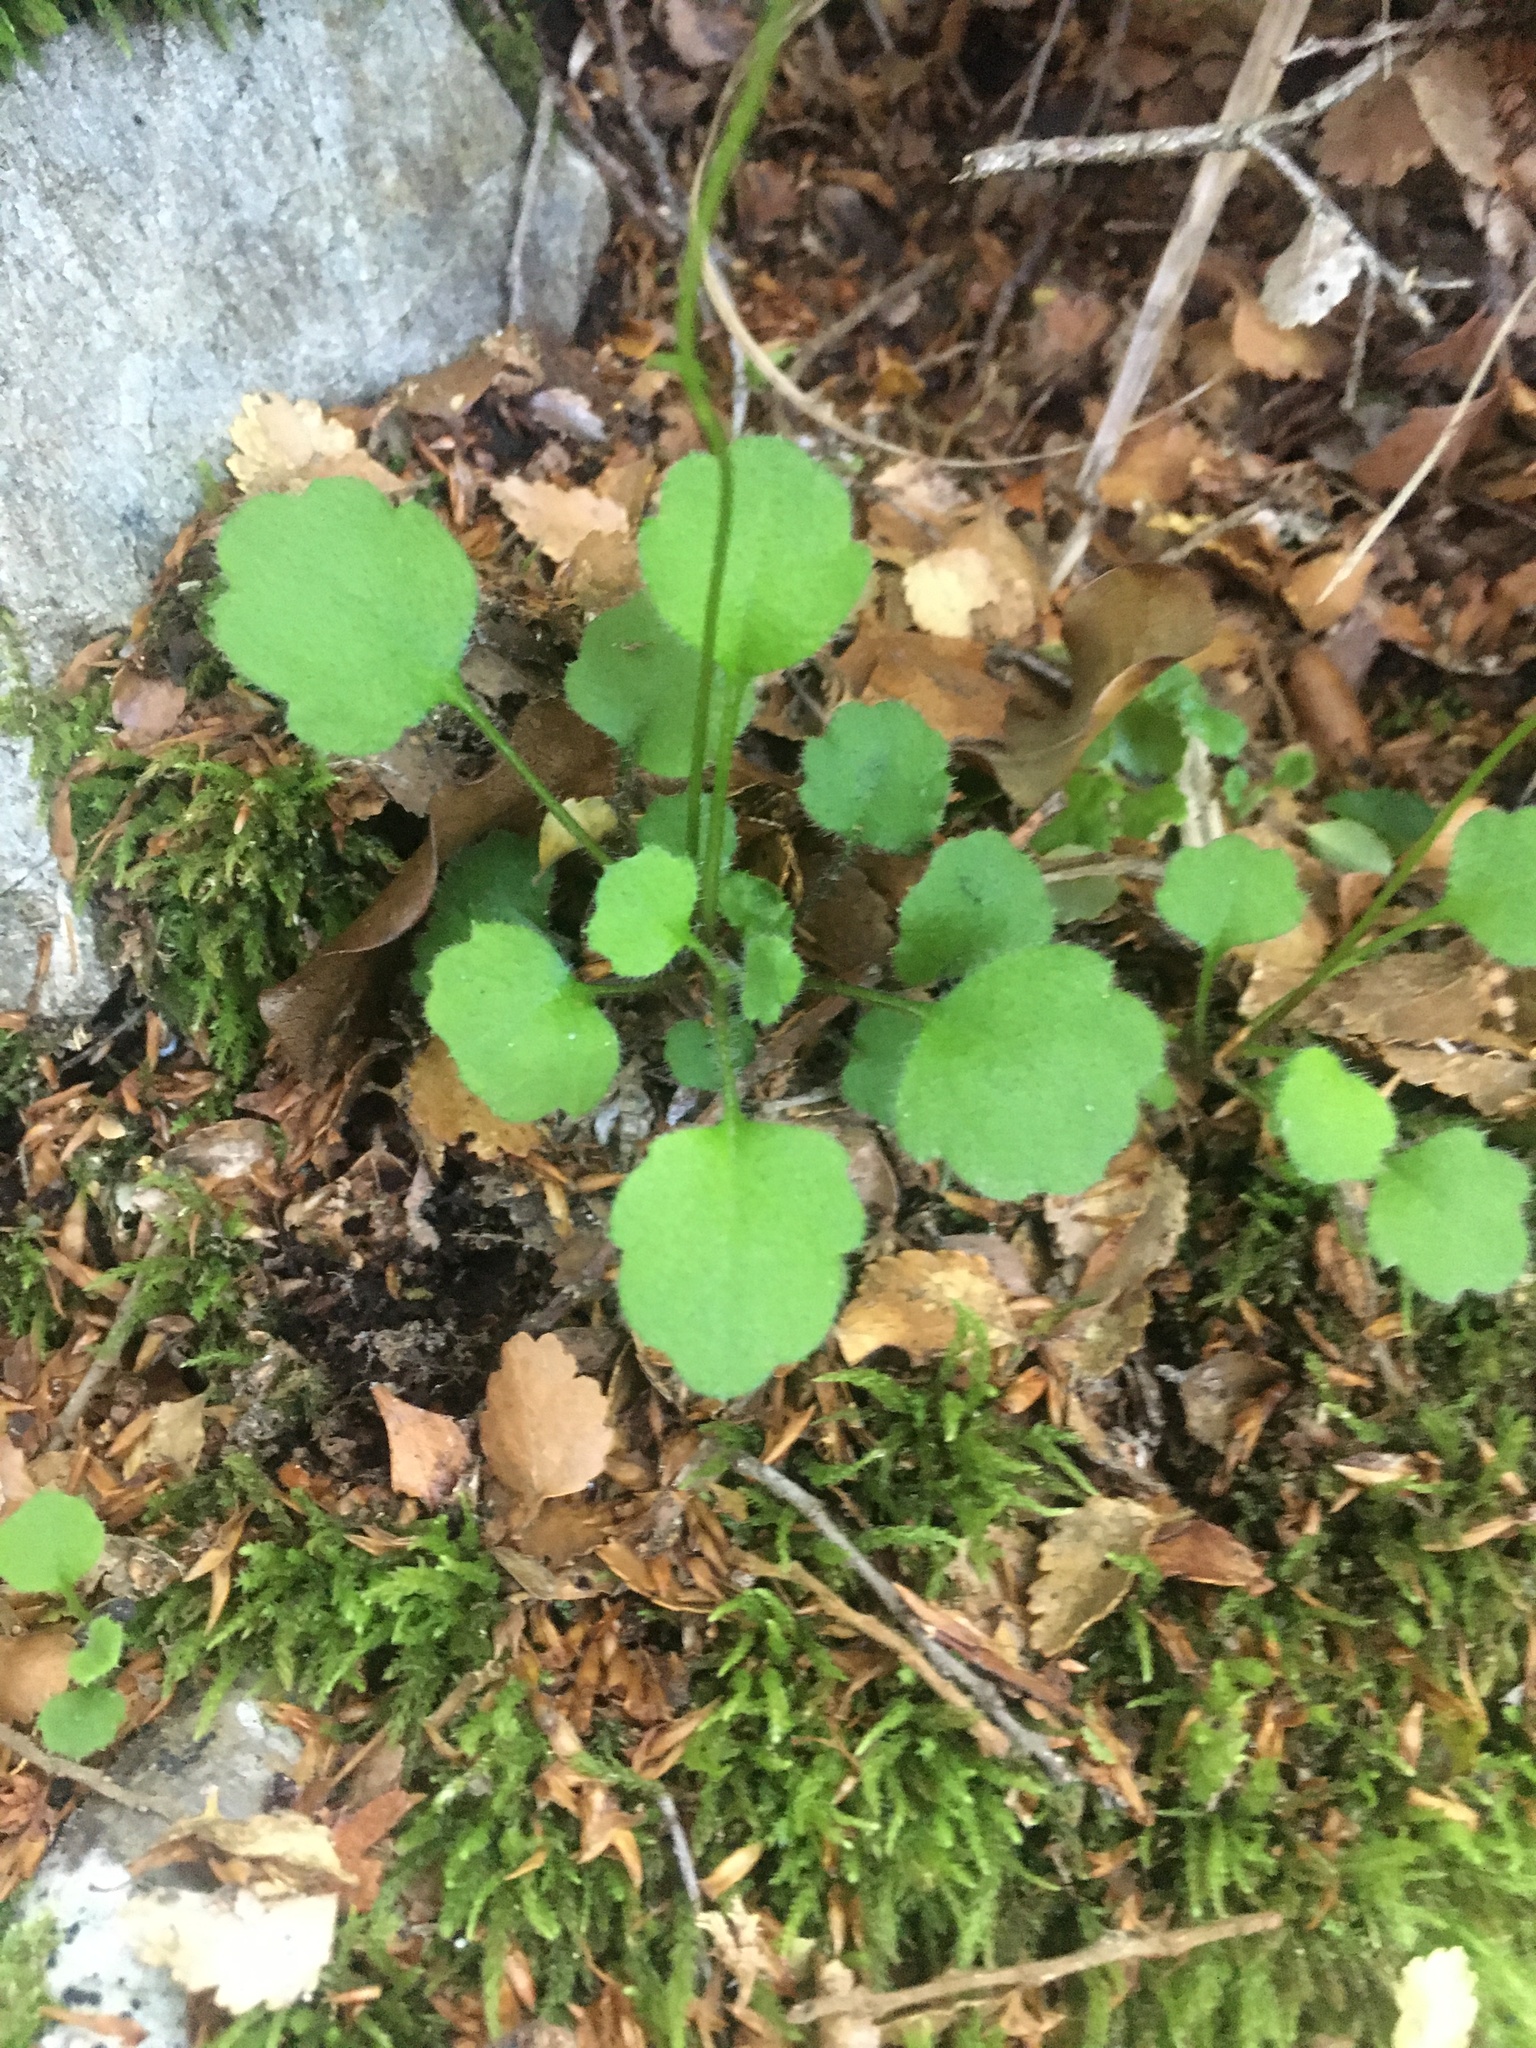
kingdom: Plantae
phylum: Tracheophyta
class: Magnoliopsida
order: Asterales
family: Asteraceae
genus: Lagenophora
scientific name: Lagenophora strangulata
